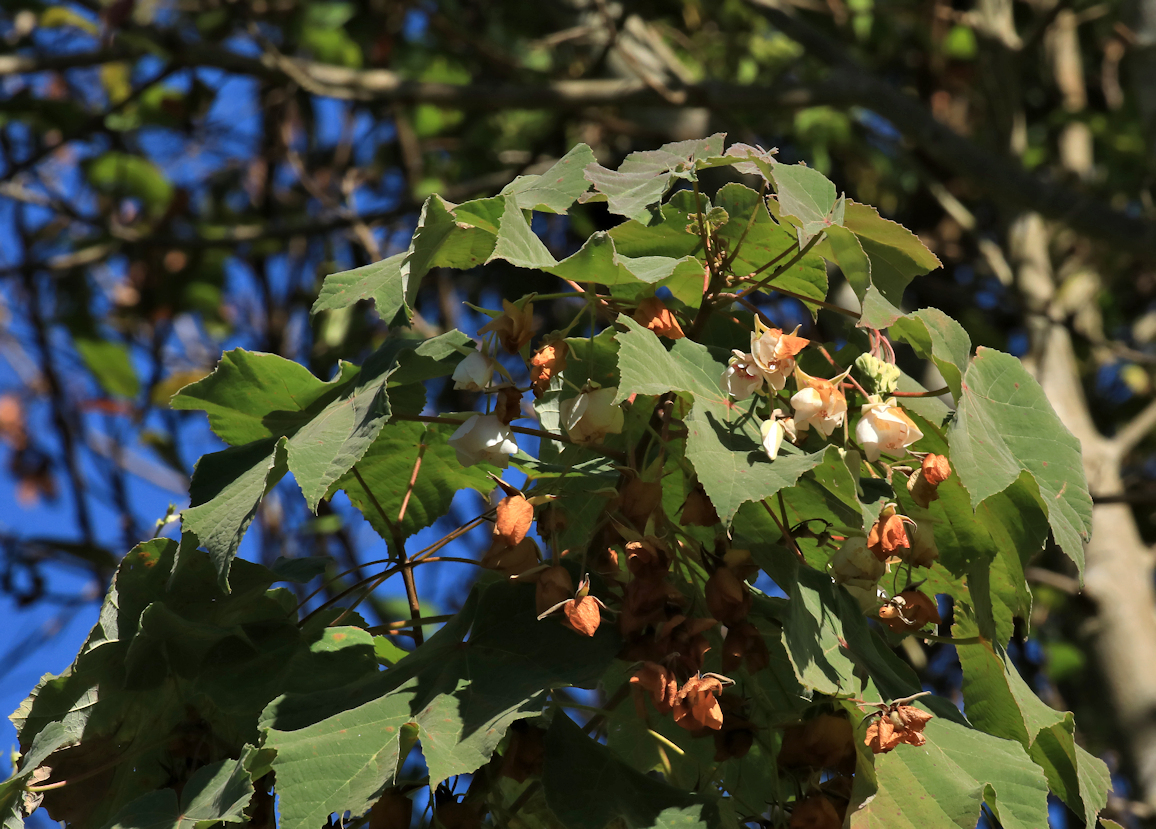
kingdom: Plantae
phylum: Tracheophyta
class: Magnoliopsida
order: Malvales
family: Malvaceae
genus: Dombeya
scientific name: Dombeya burgessiae
